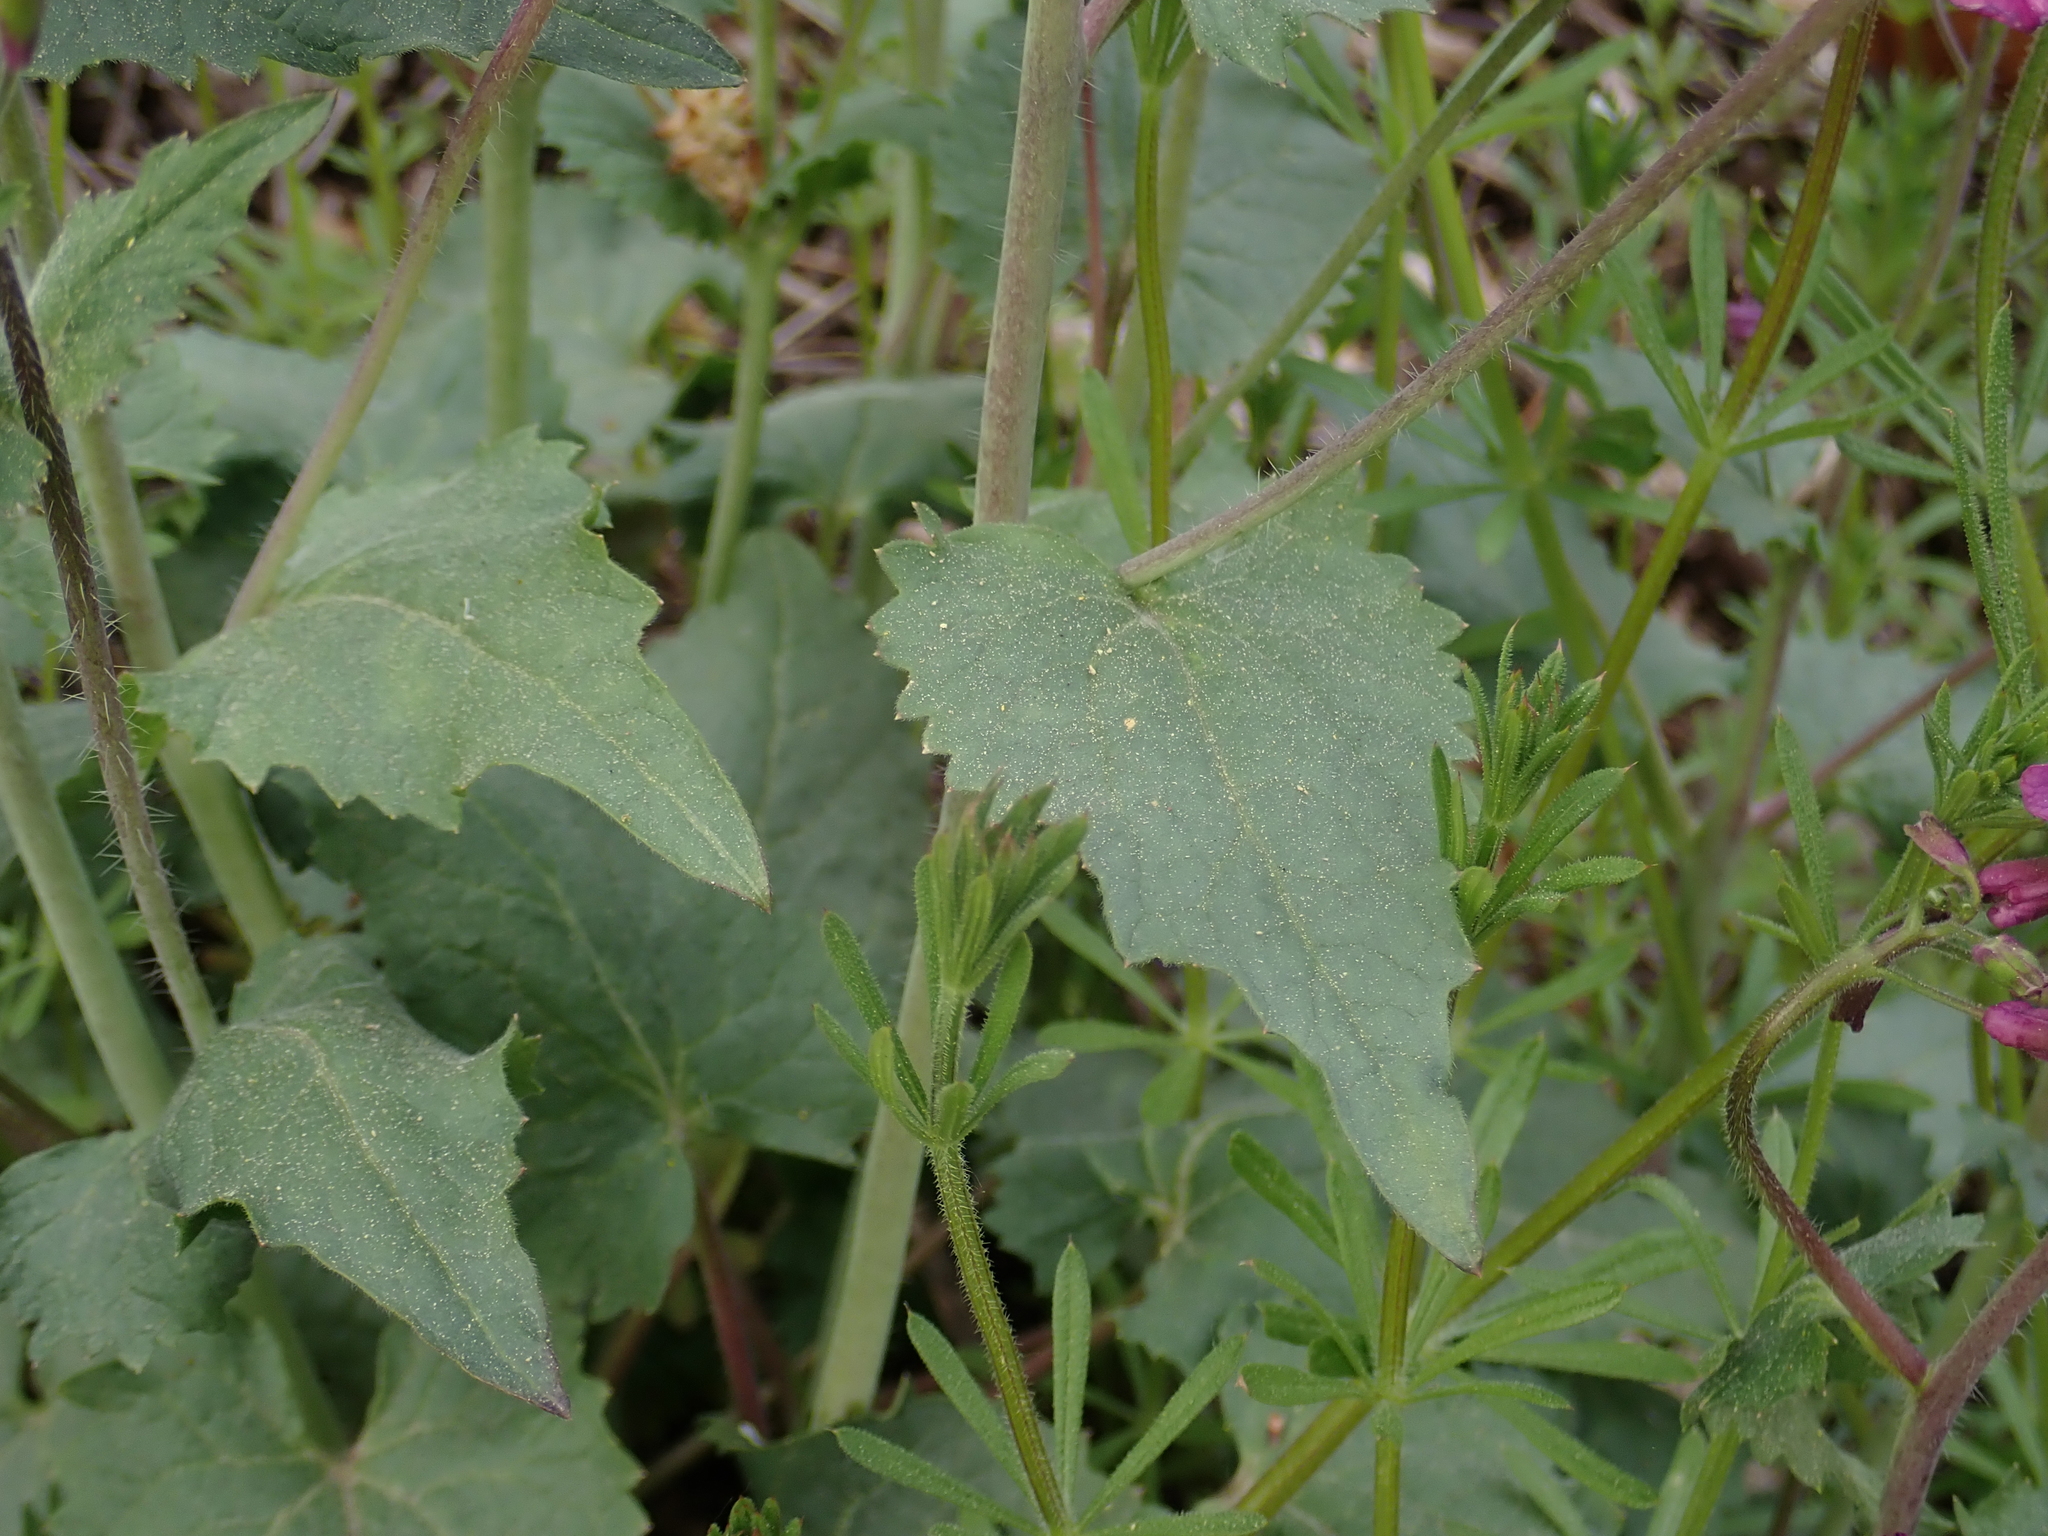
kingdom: Plantae
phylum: Tracheophyta
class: Magnoliopsida
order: Brassicales
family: Brassicaceae
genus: Lunaria
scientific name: Lunaria annua
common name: Honesty
